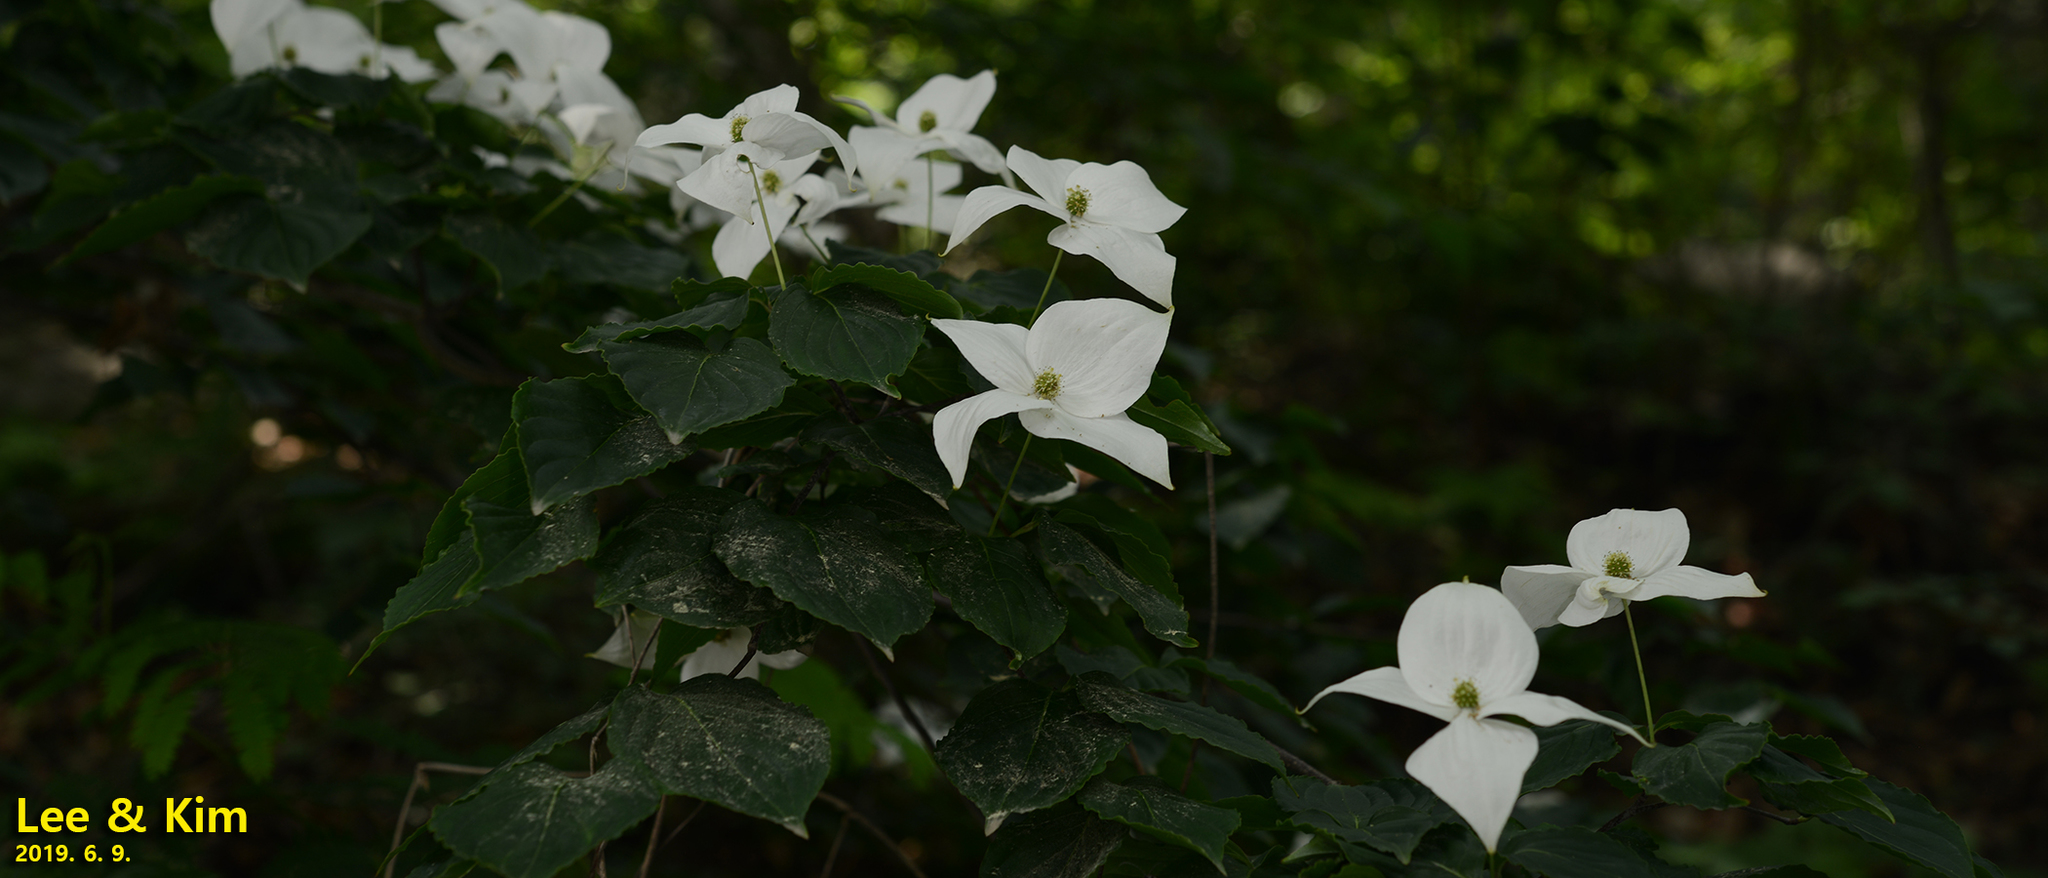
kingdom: Plantae
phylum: Tracheophyta
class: Magnoliopsida
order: Cornales
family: Cornaceae
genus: Cornus
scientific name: Cornus kousa
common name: Japanese dogwood
